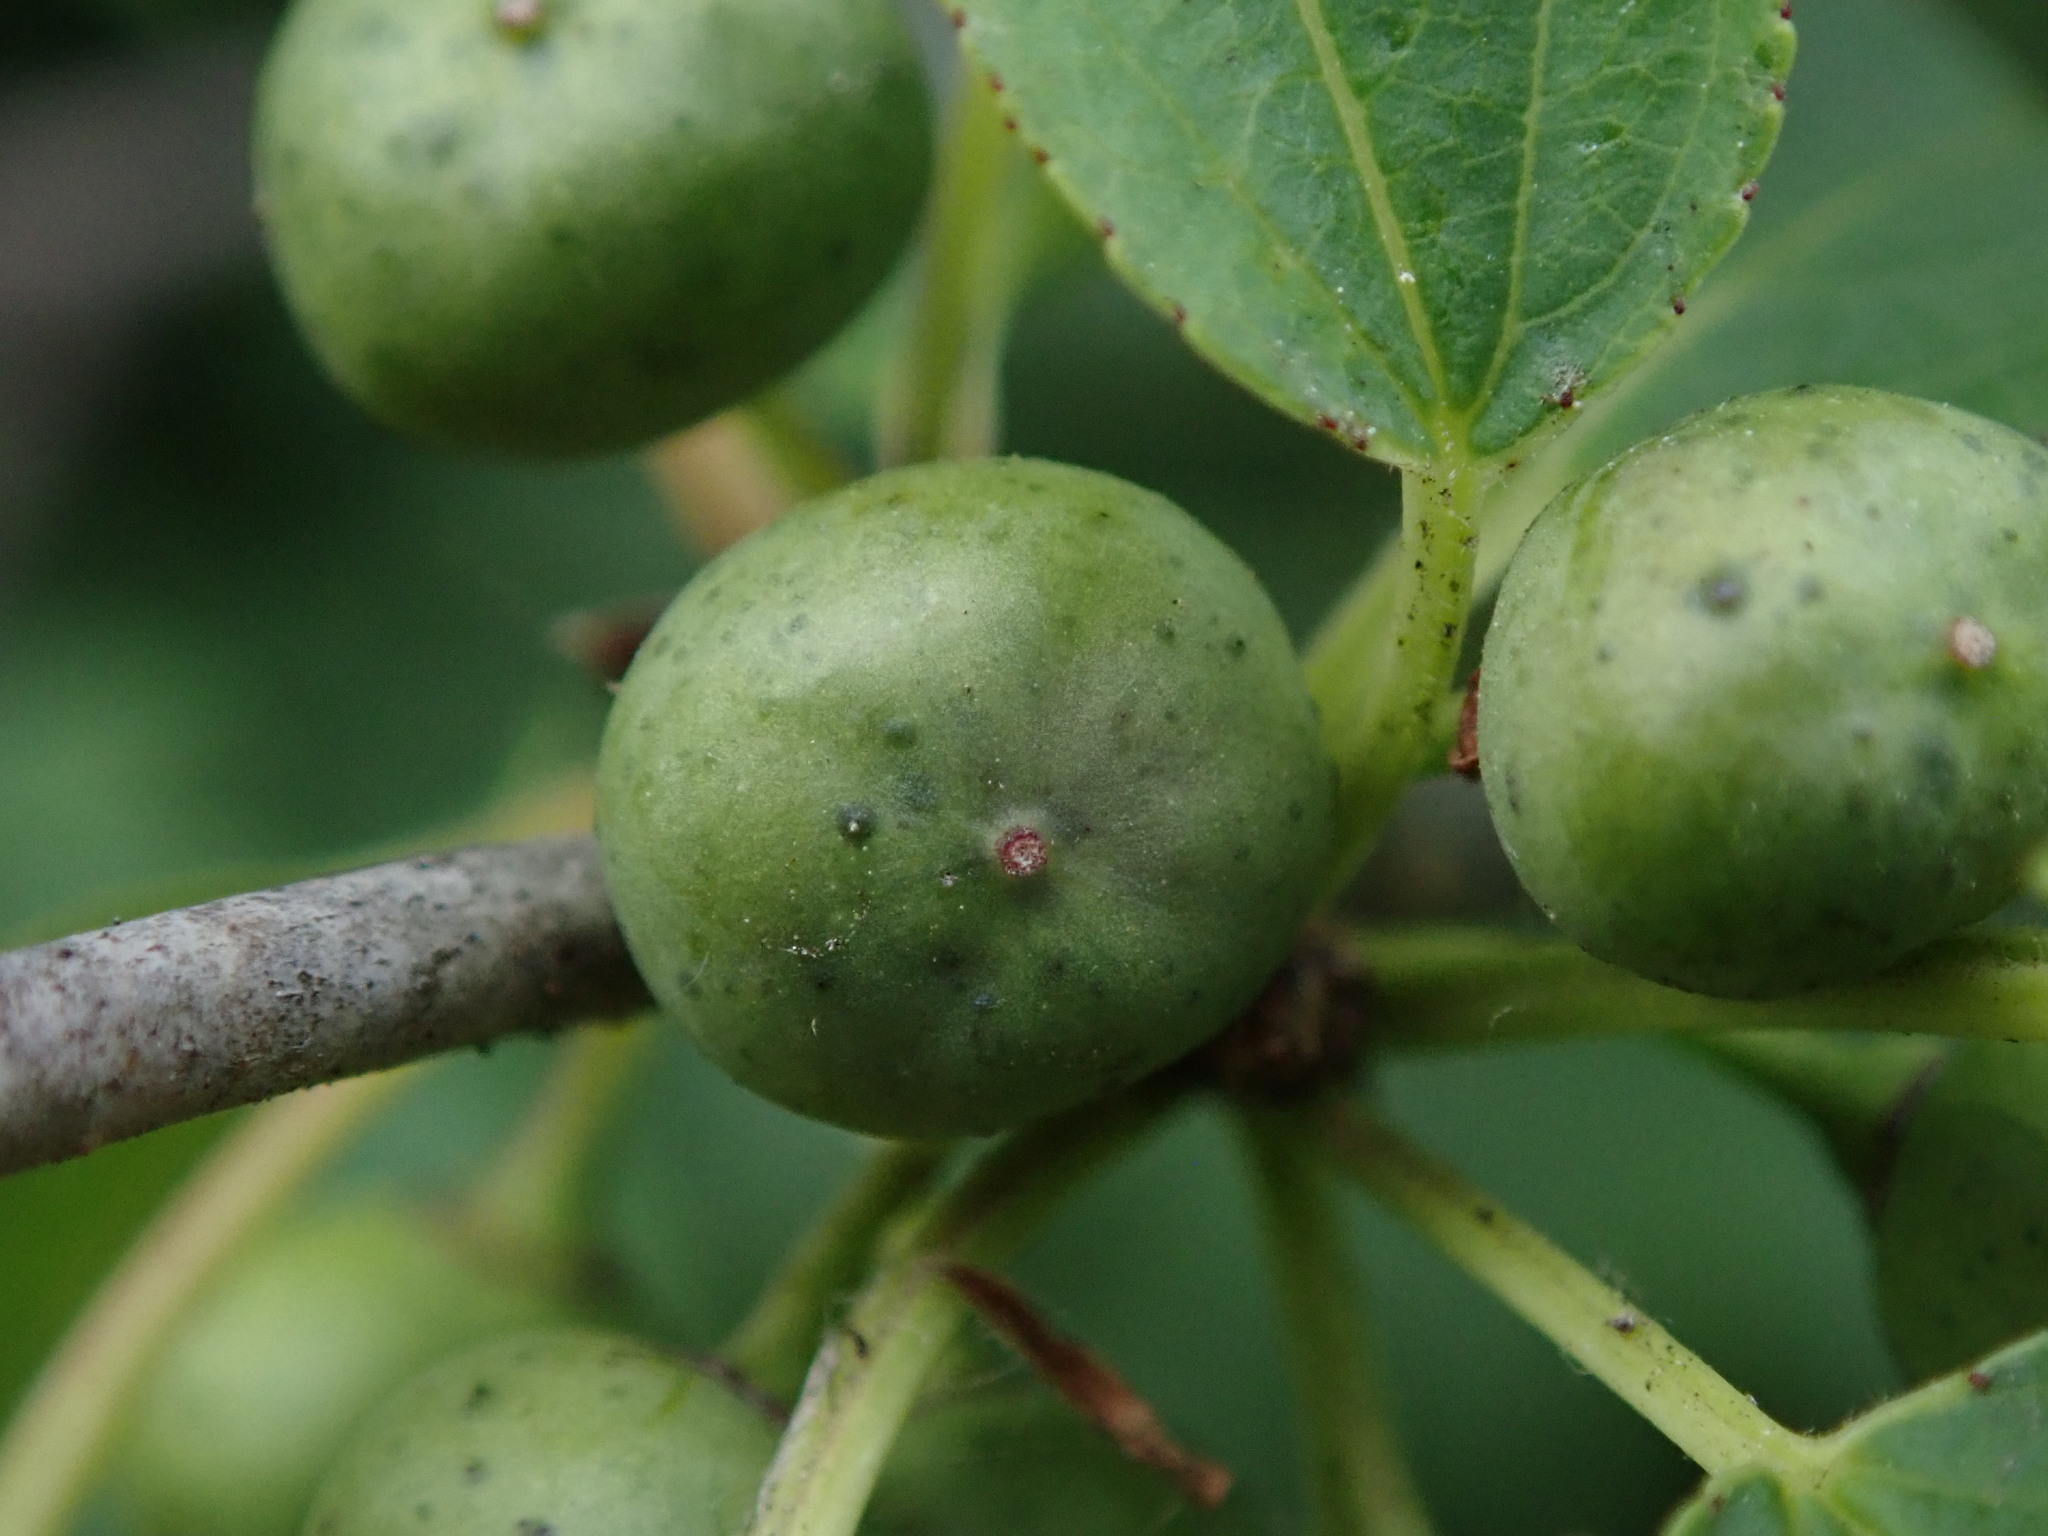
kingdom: Plantae
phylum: Tracheophyta
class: Magnoliopsida
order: Rosales
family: Rhamnaceae
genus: Rhamnus
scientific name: Rhamnus cathartica
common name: Common buckthorn
